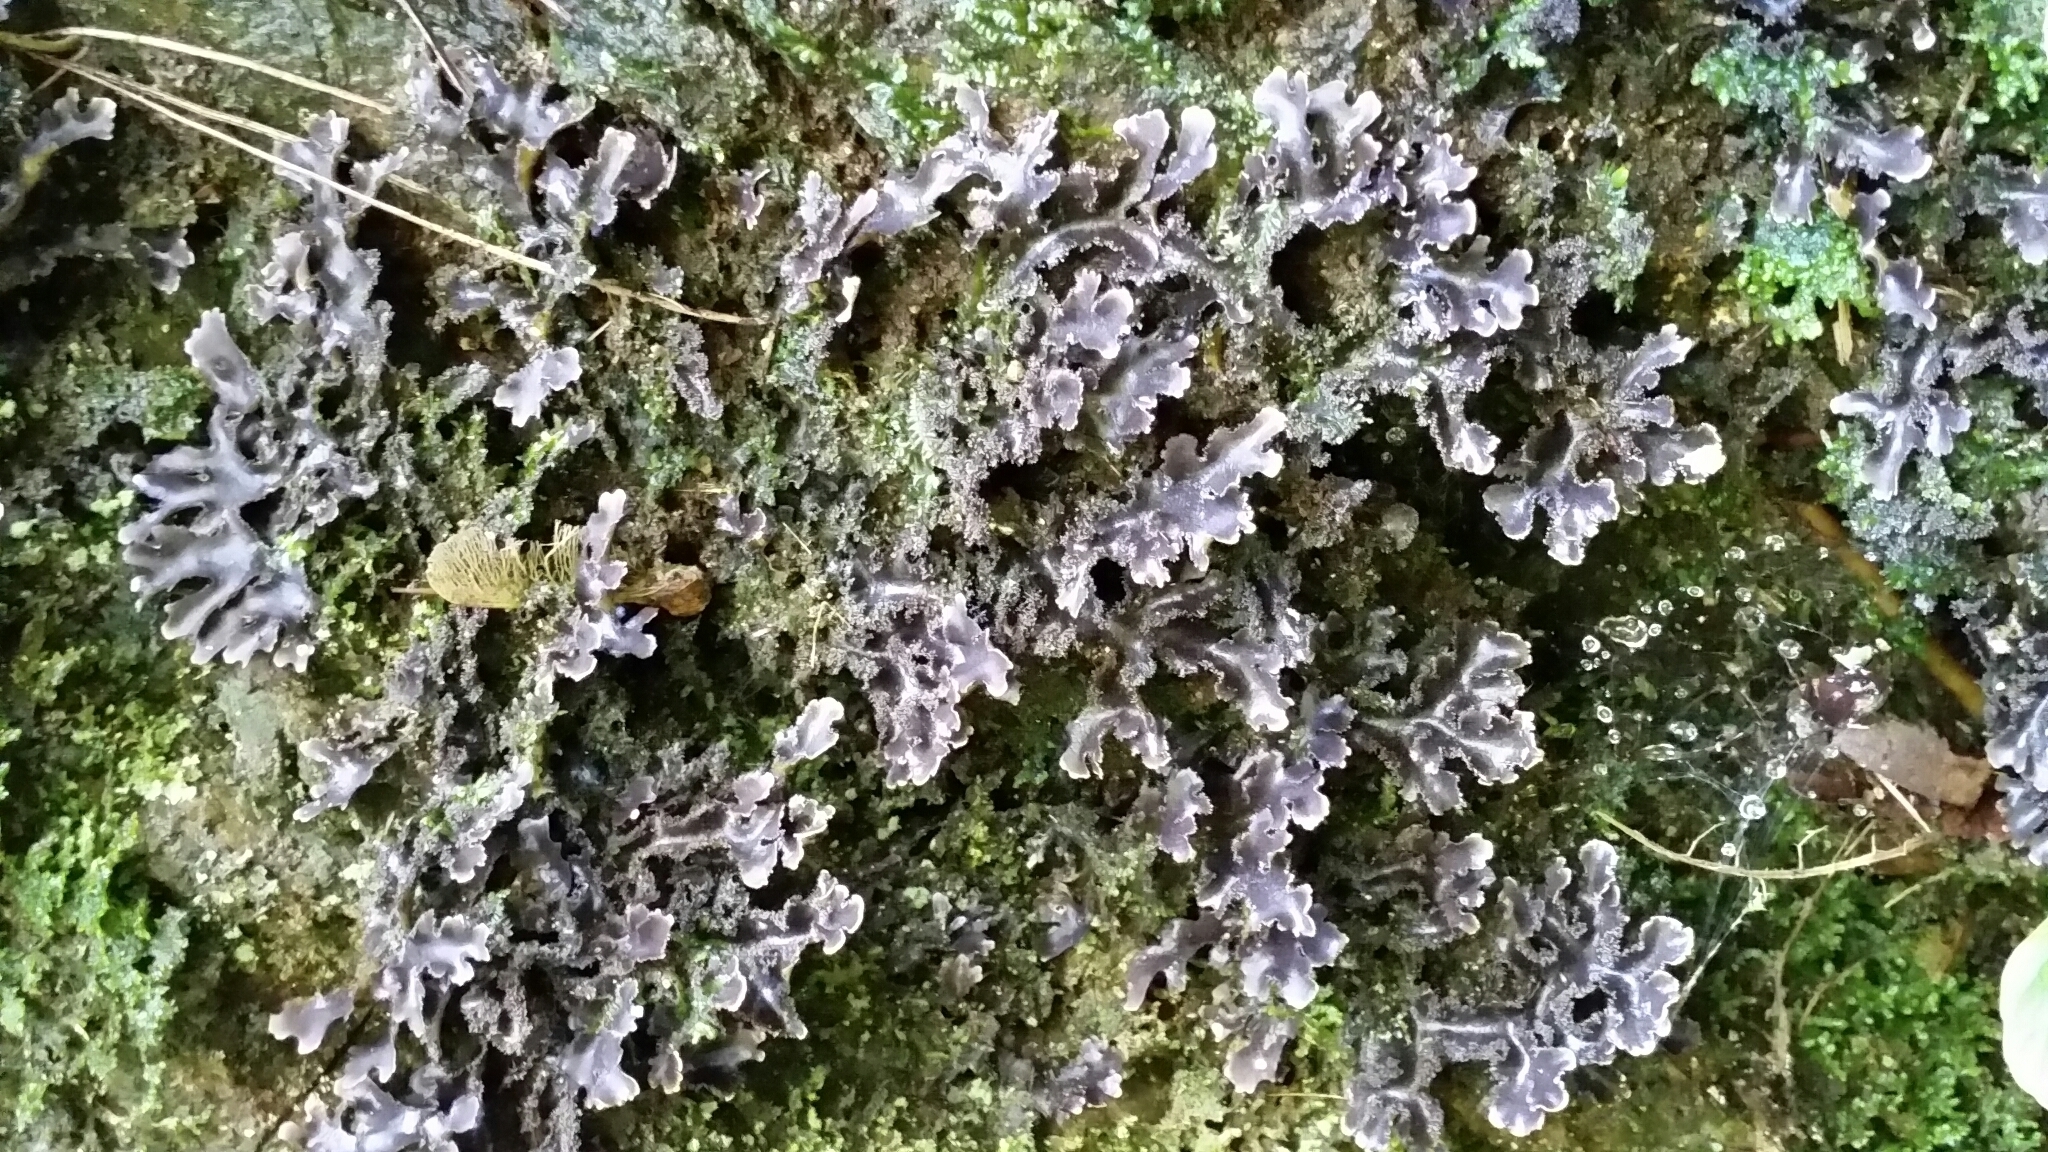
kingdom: Fungi
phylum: Ascomycota
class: Lecanoromycetes
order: Peltigerales
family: Lobariaceae
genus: Pseudocyphellaria
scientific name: Pseudocyphellaria dissimilis
